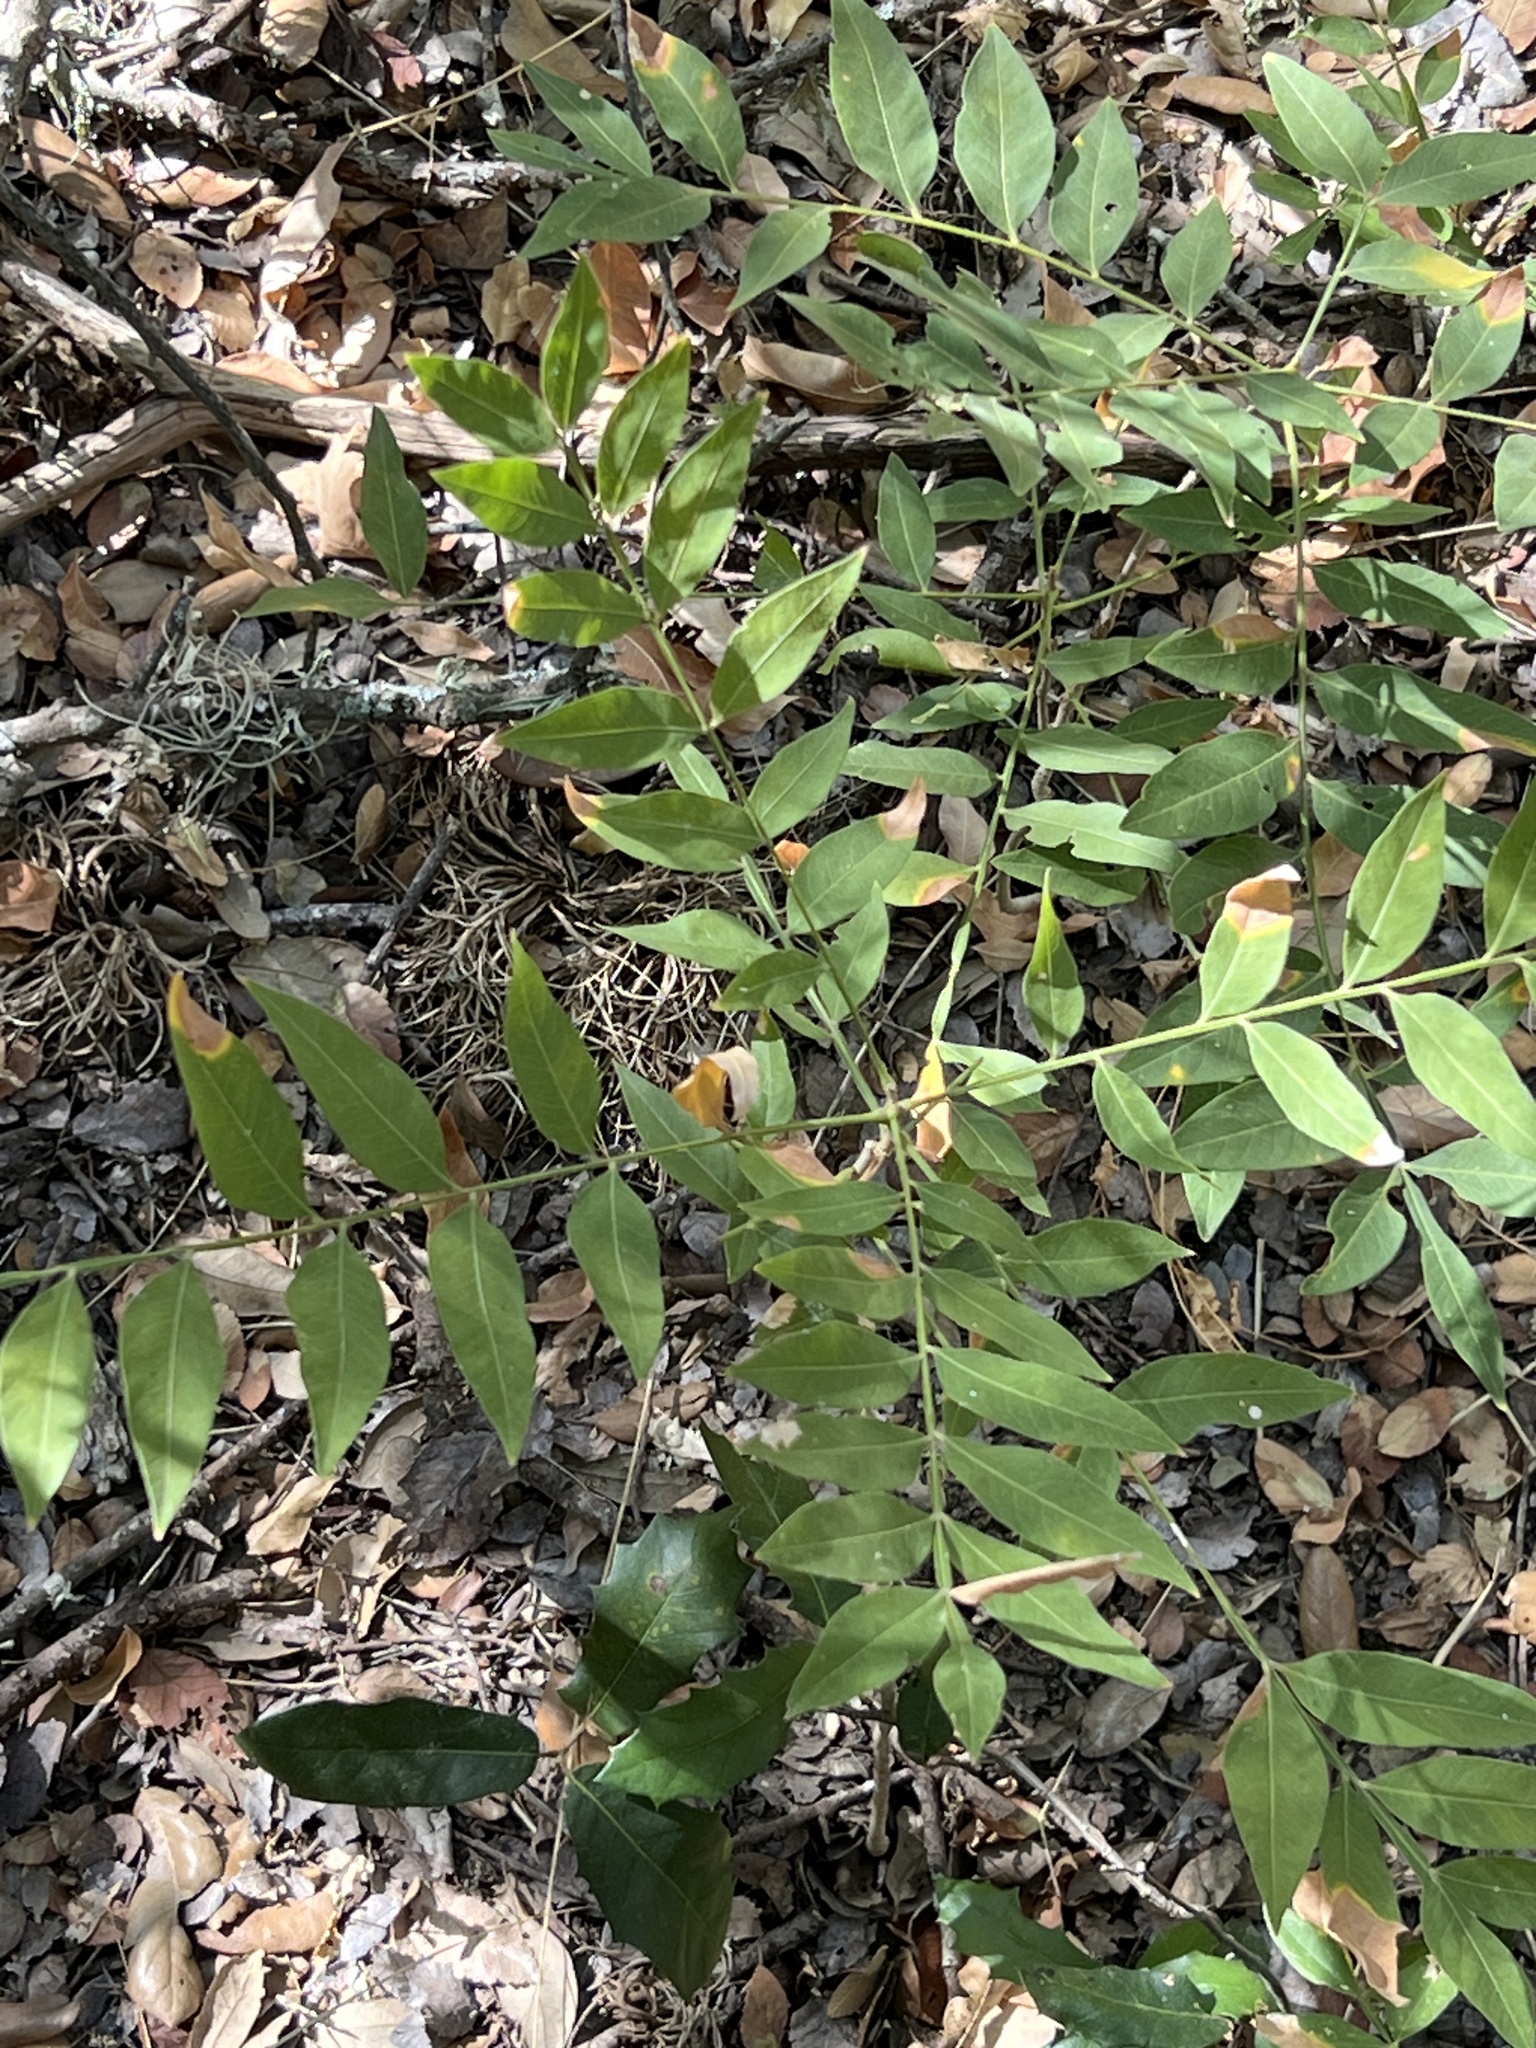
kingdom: Plantae
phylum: Tracheophyta
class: Magnoliopsida
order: Sapindales
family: Sapindaceae
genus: Sapindus
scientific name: Sapindus drummondii
